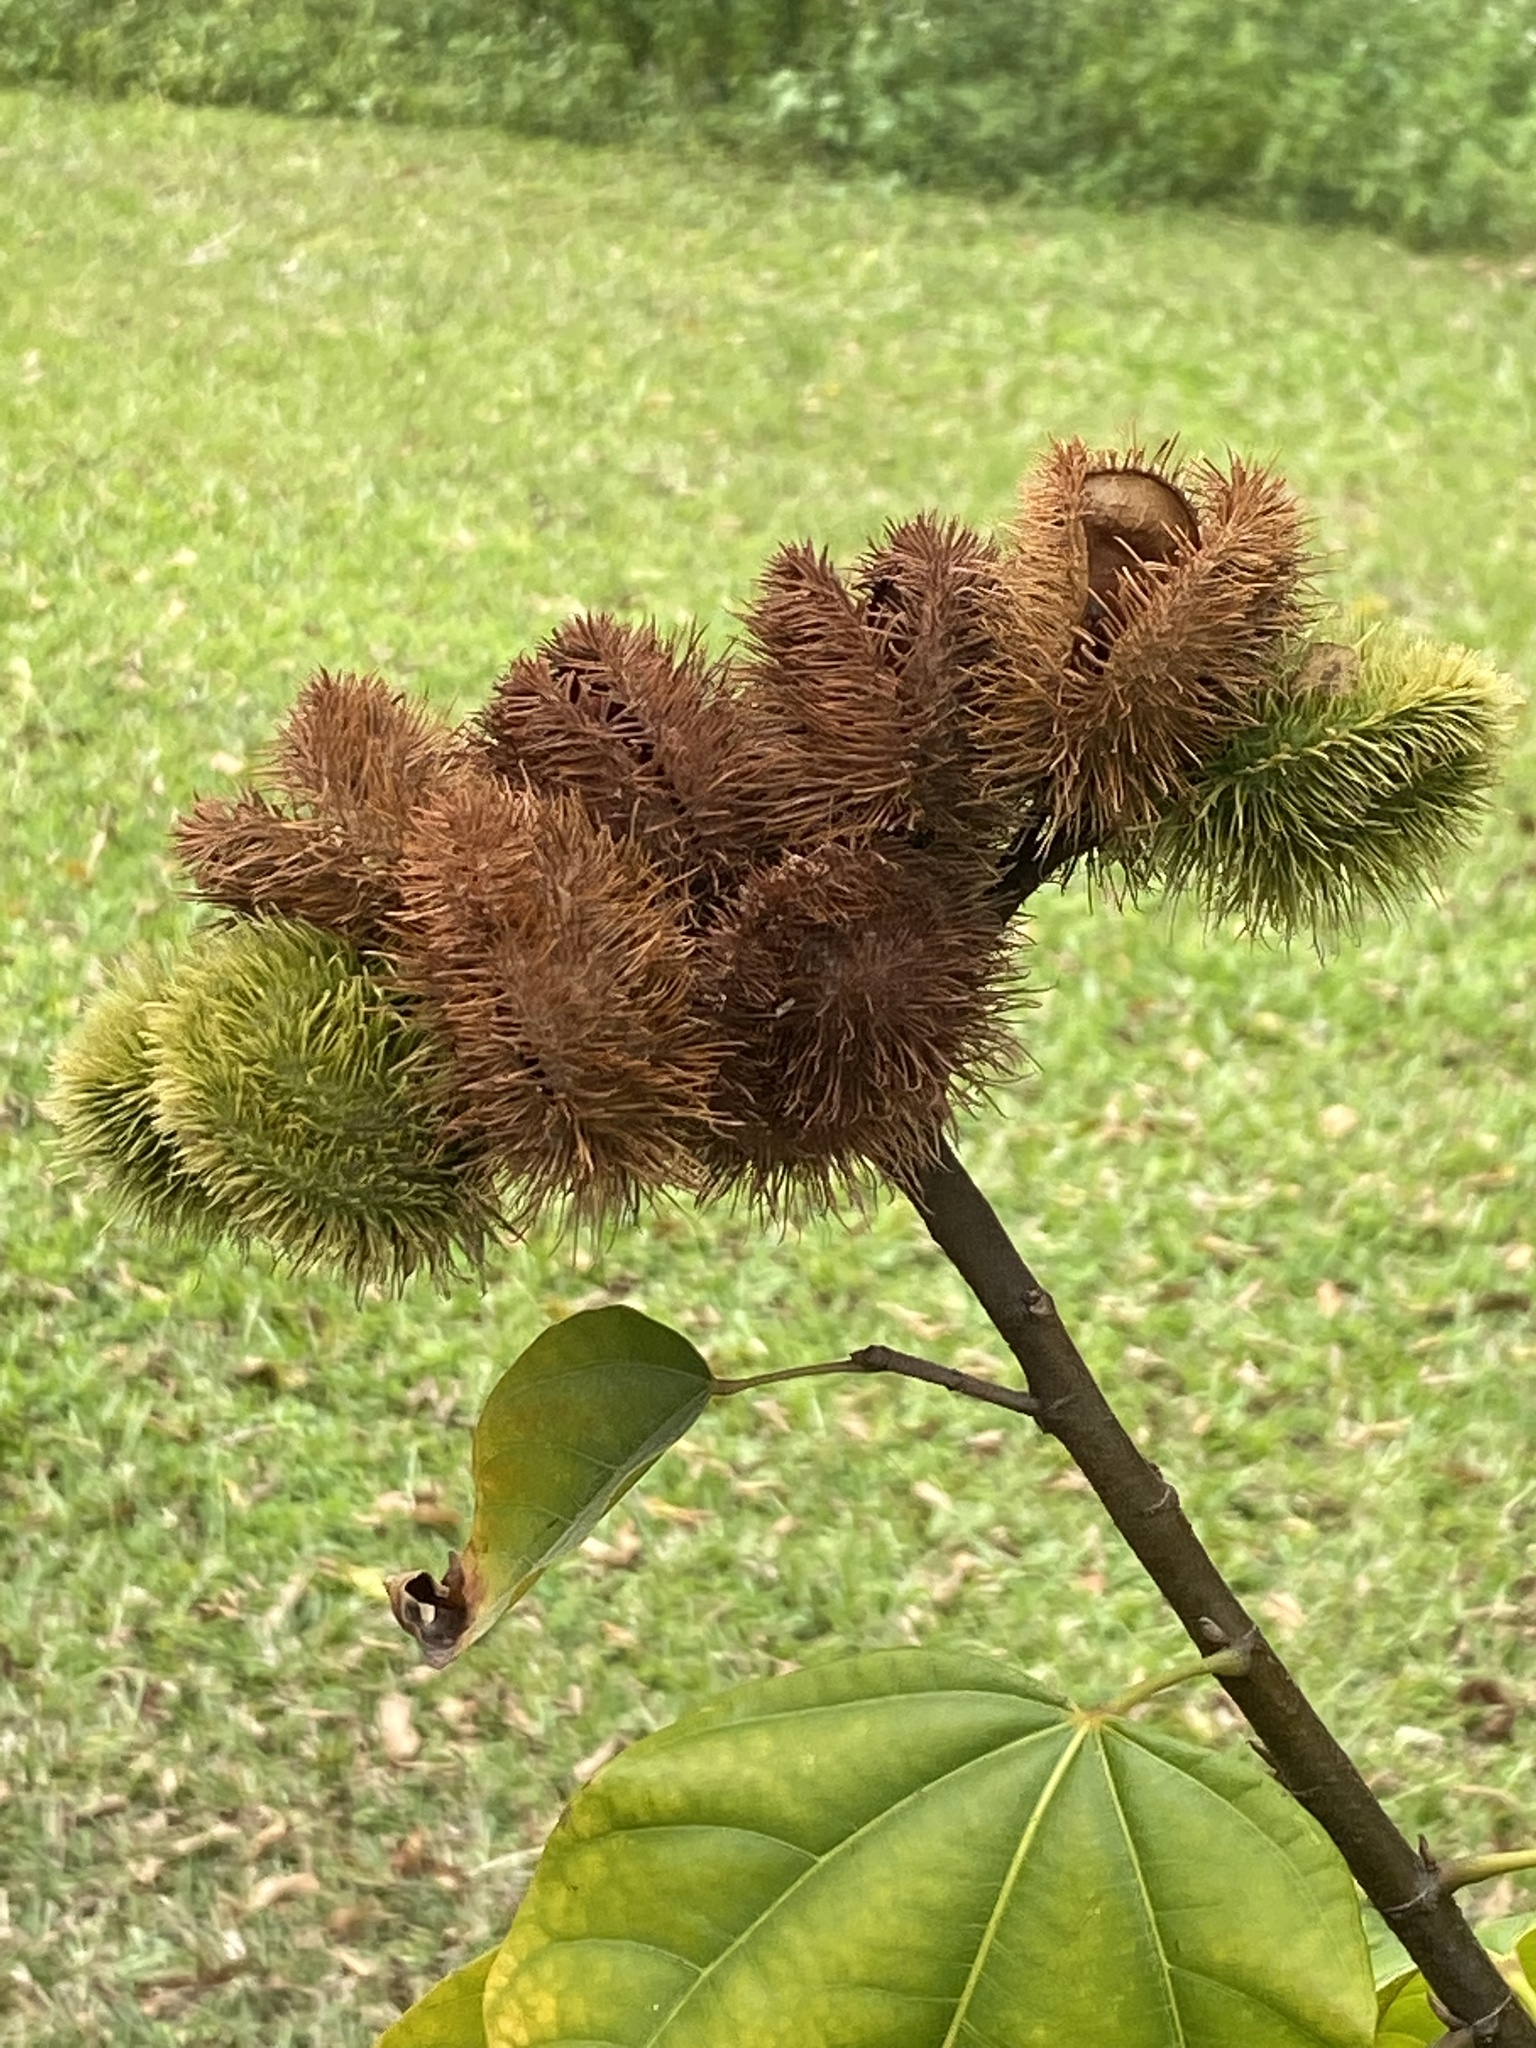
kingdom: Plantae
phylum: Tracheophyta
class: Magnoliopsida
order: Malvales
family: Bixaceae
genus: Bixa
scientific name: Bixa orellana
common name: Lipsticktree
